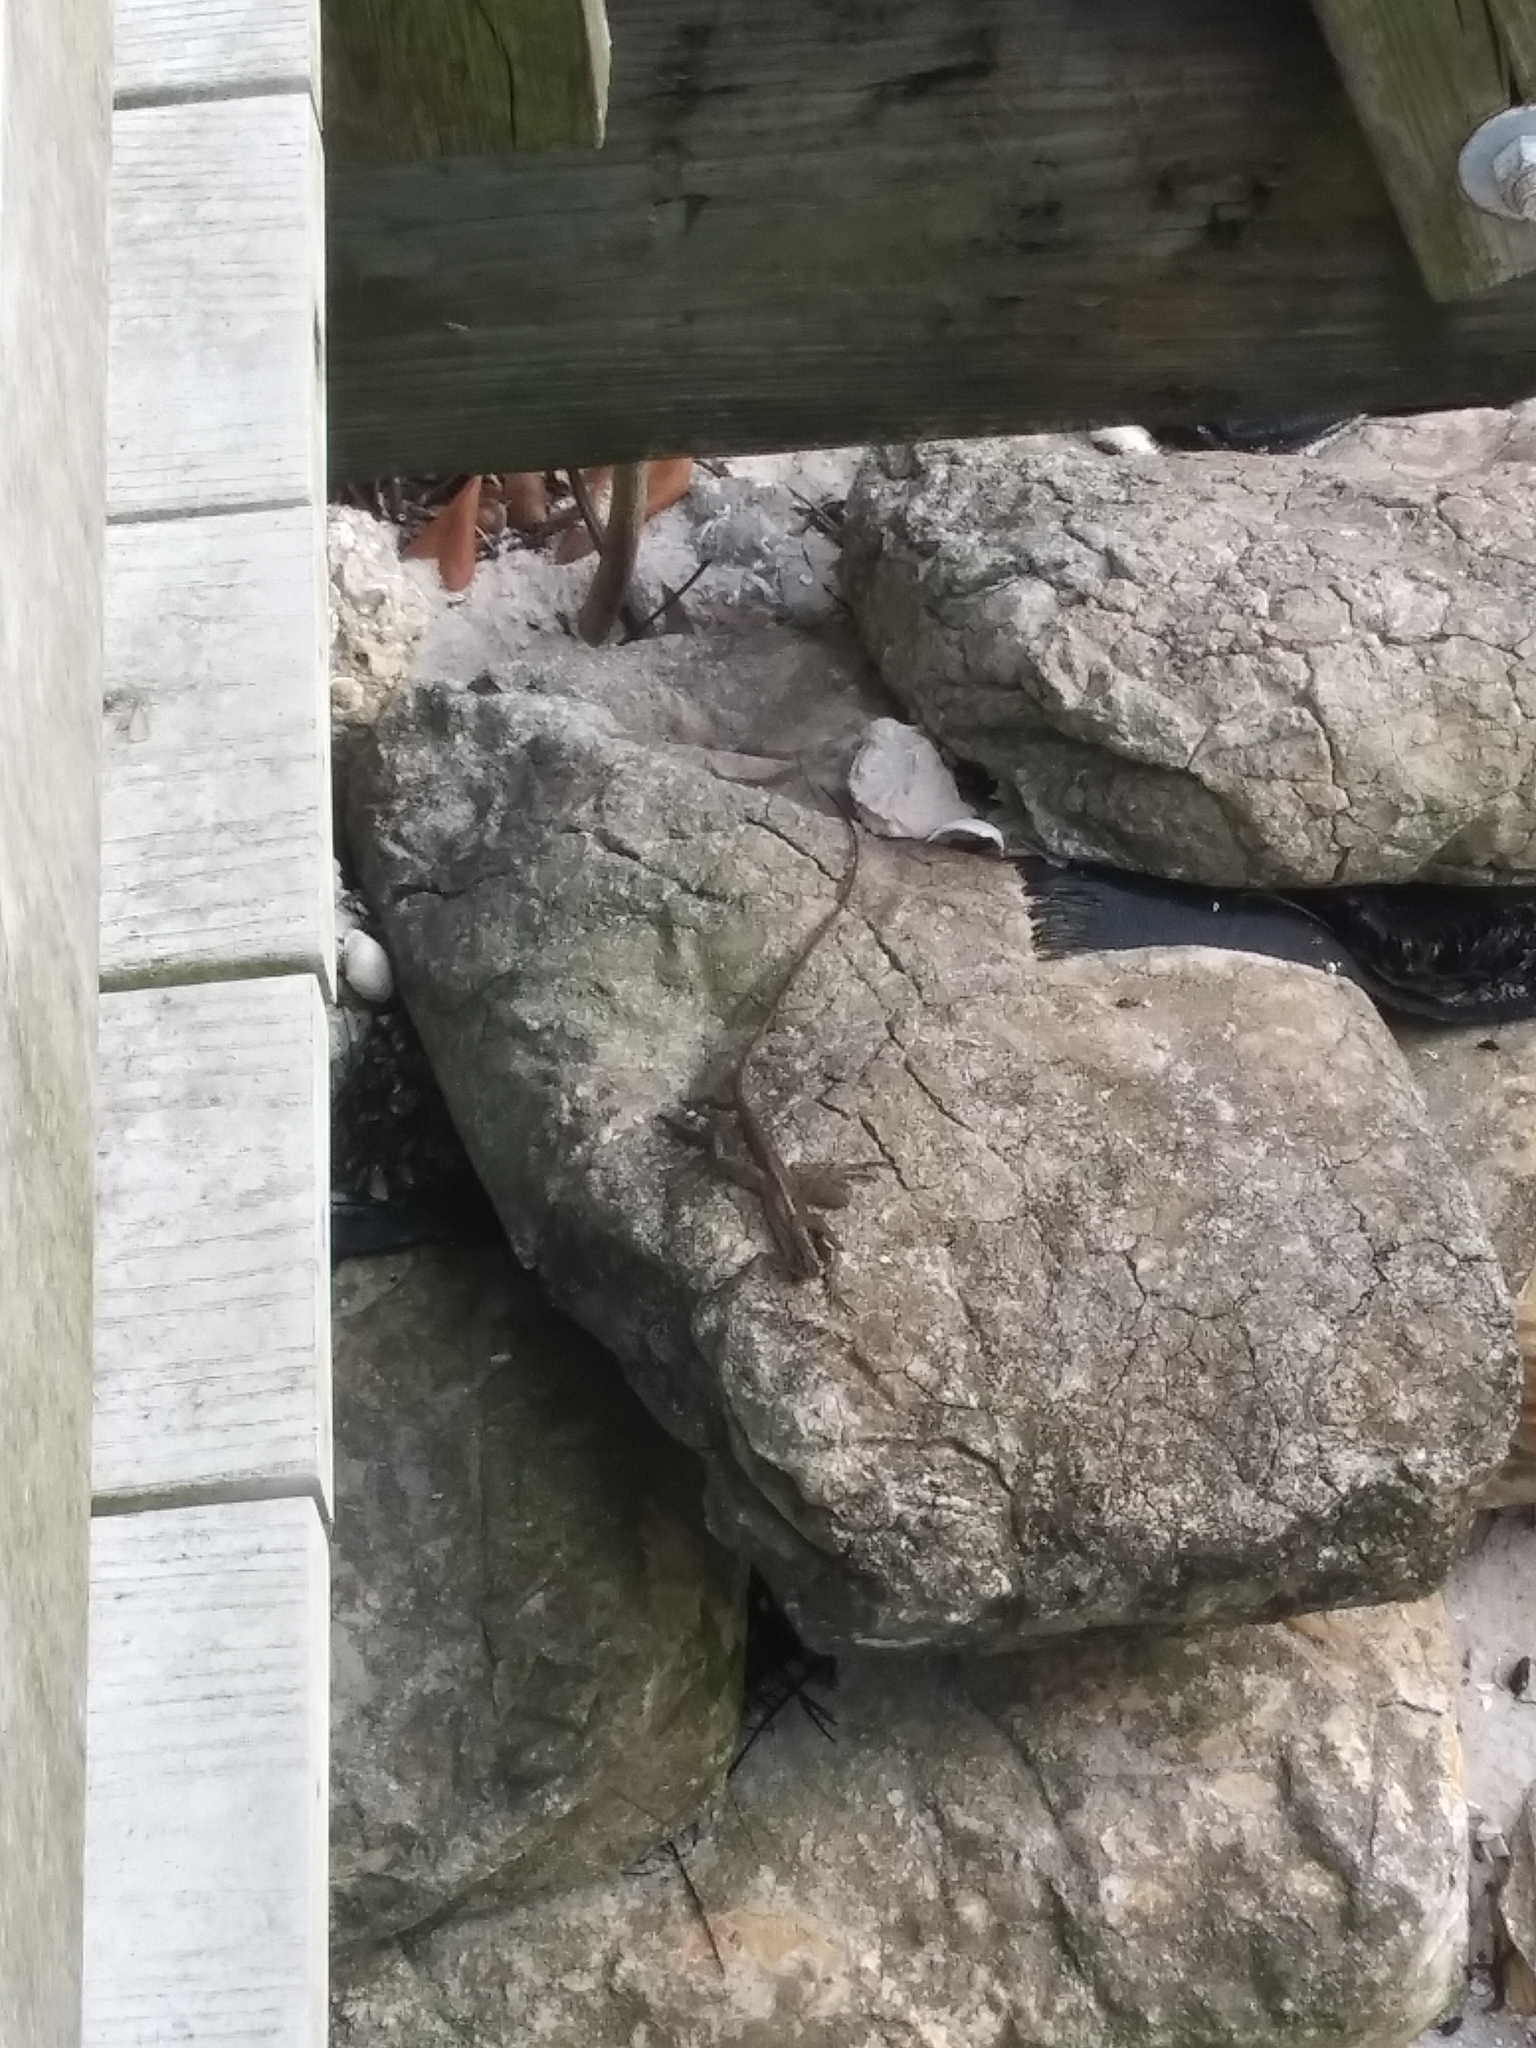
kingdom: Animalia
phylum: Chordata
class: Squamata
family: Corytophanidae
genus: Basiliscus
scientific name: Basiliscus vittatus
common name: Brown basilisk
